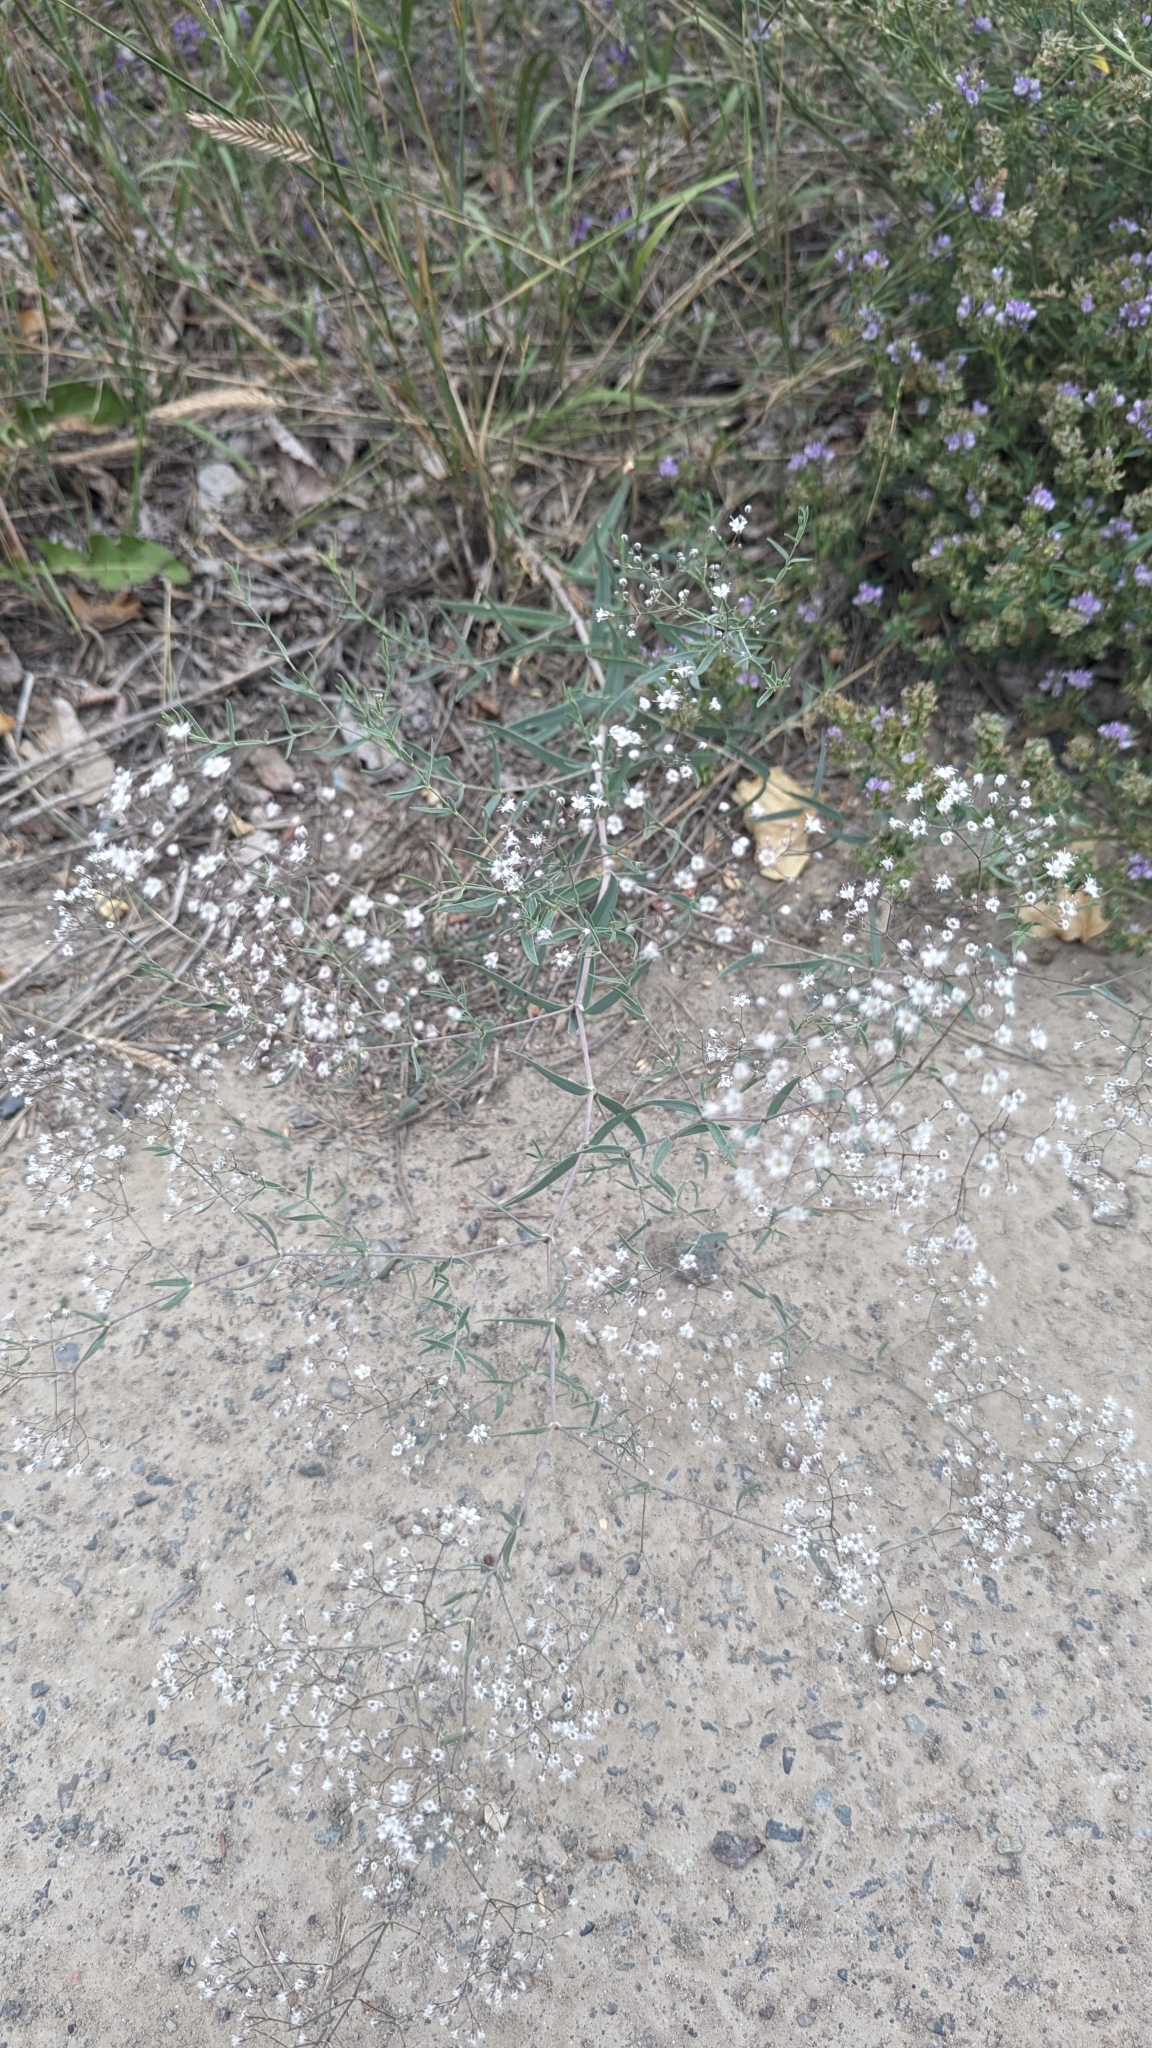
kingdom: Plantae
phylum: Tracheophyta
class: Magnoliopsida
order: Caryophyllales
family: Caryophyllaceae
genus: Gypsophila
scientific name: Gypsophila paniculata
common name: Baby's-breath
